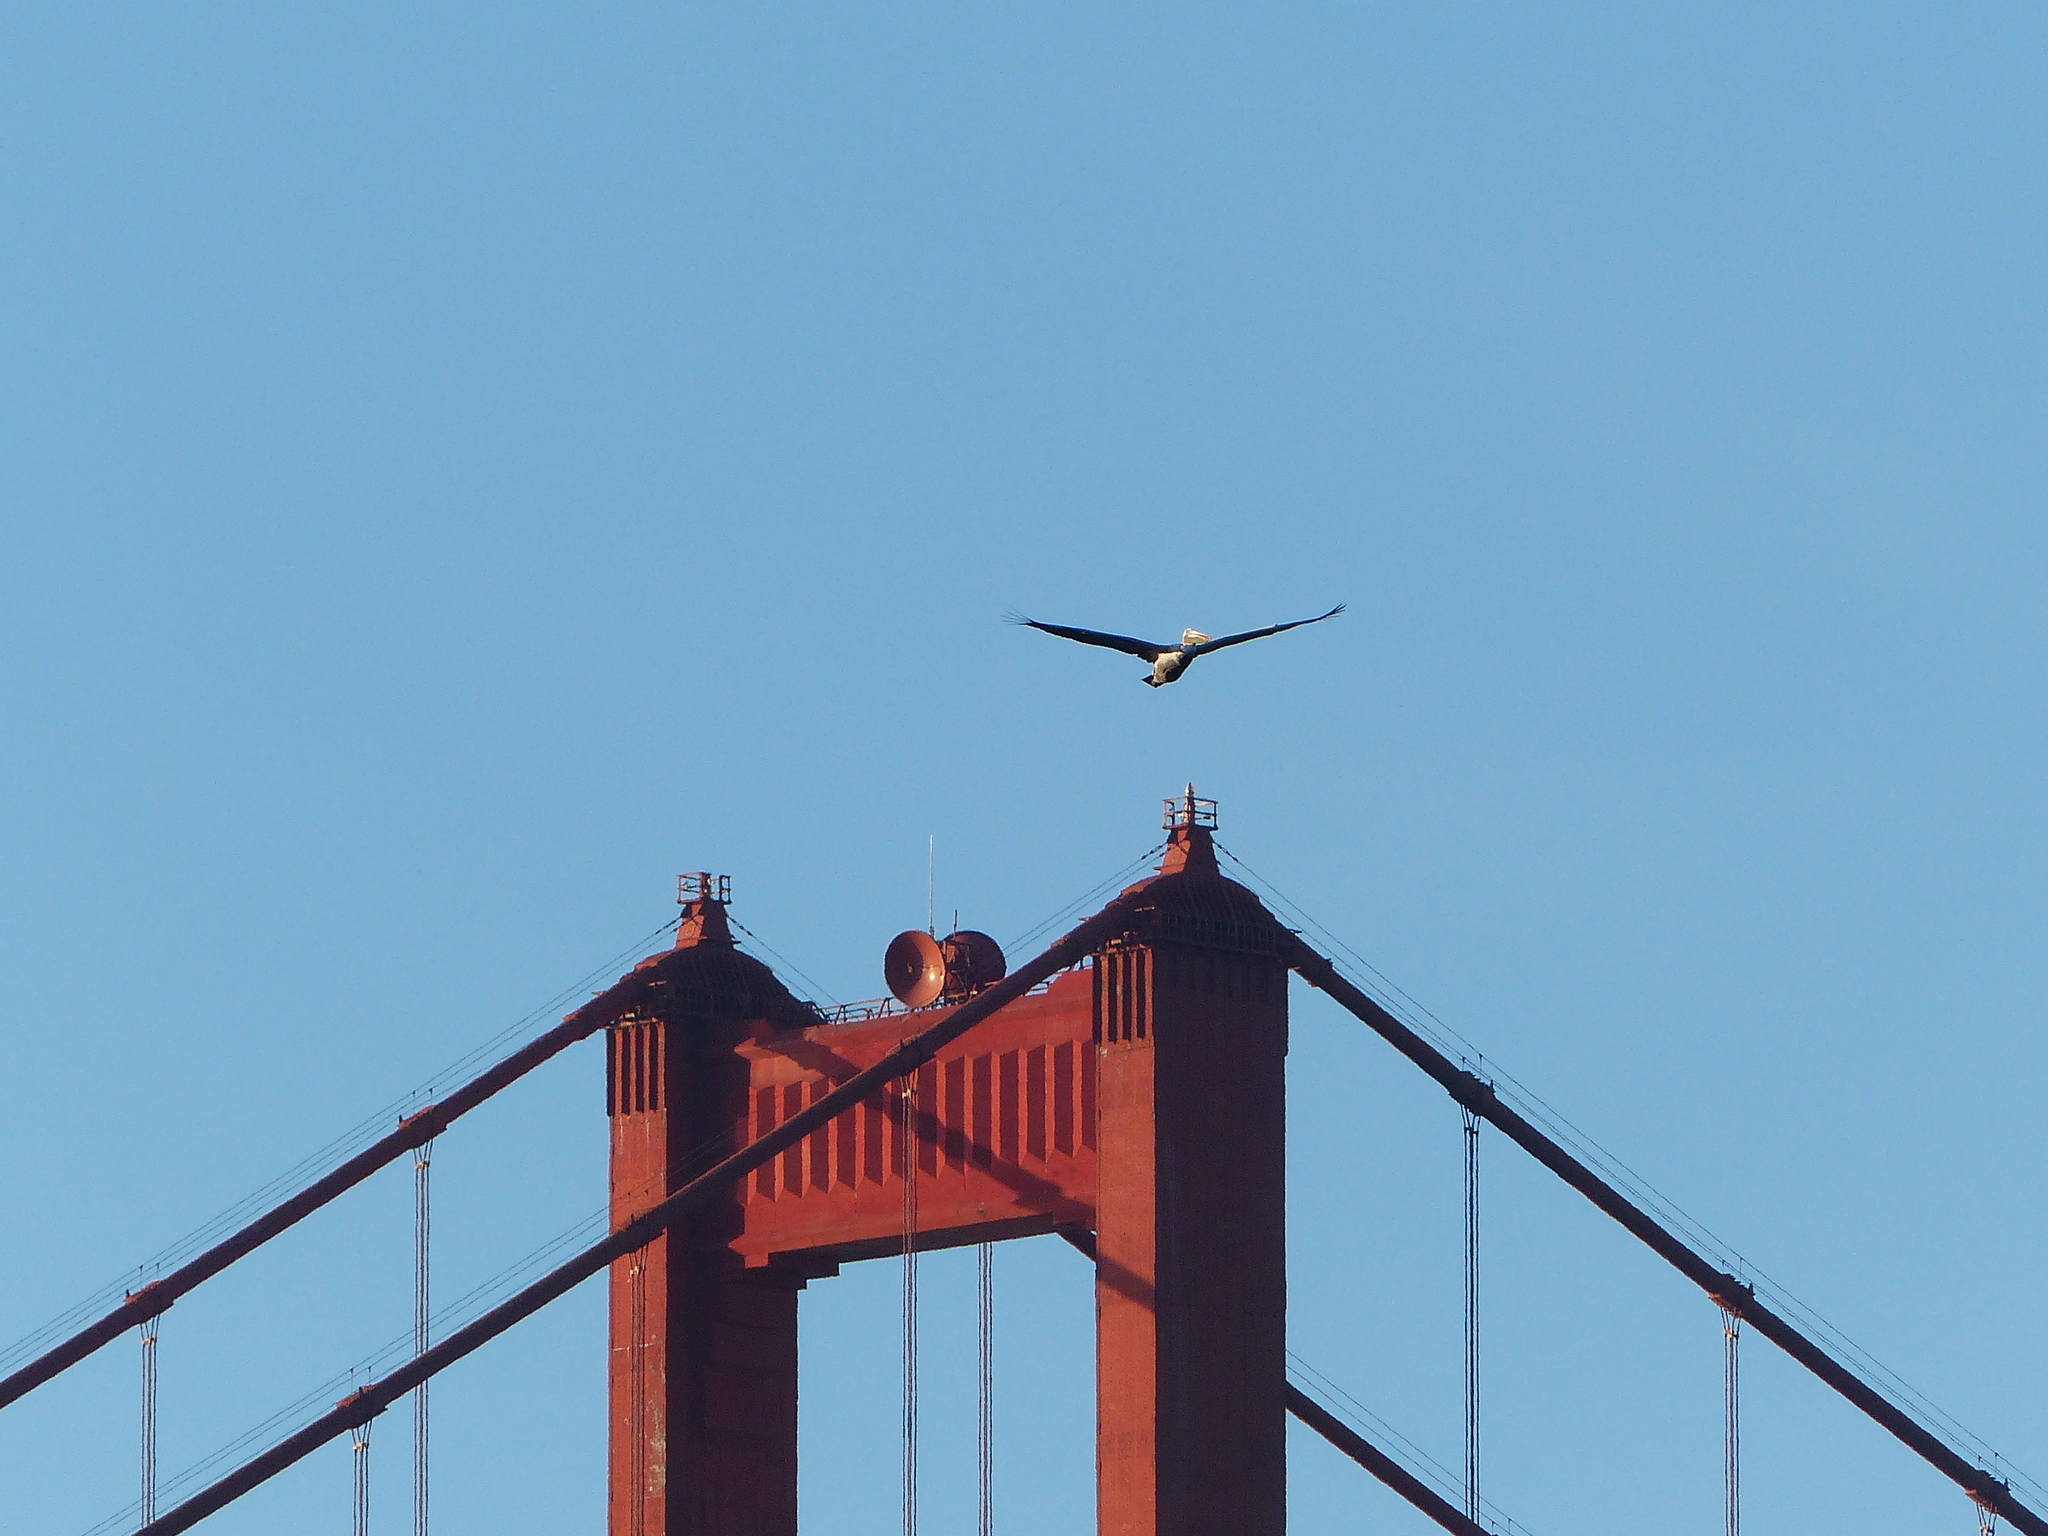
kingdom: Animalia
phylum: Chordata
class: Aves
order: Pelecaniformes
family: Pelecanidae
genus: Pelecanus
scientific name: Pelecanus occidentalis
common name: Brown pelican
